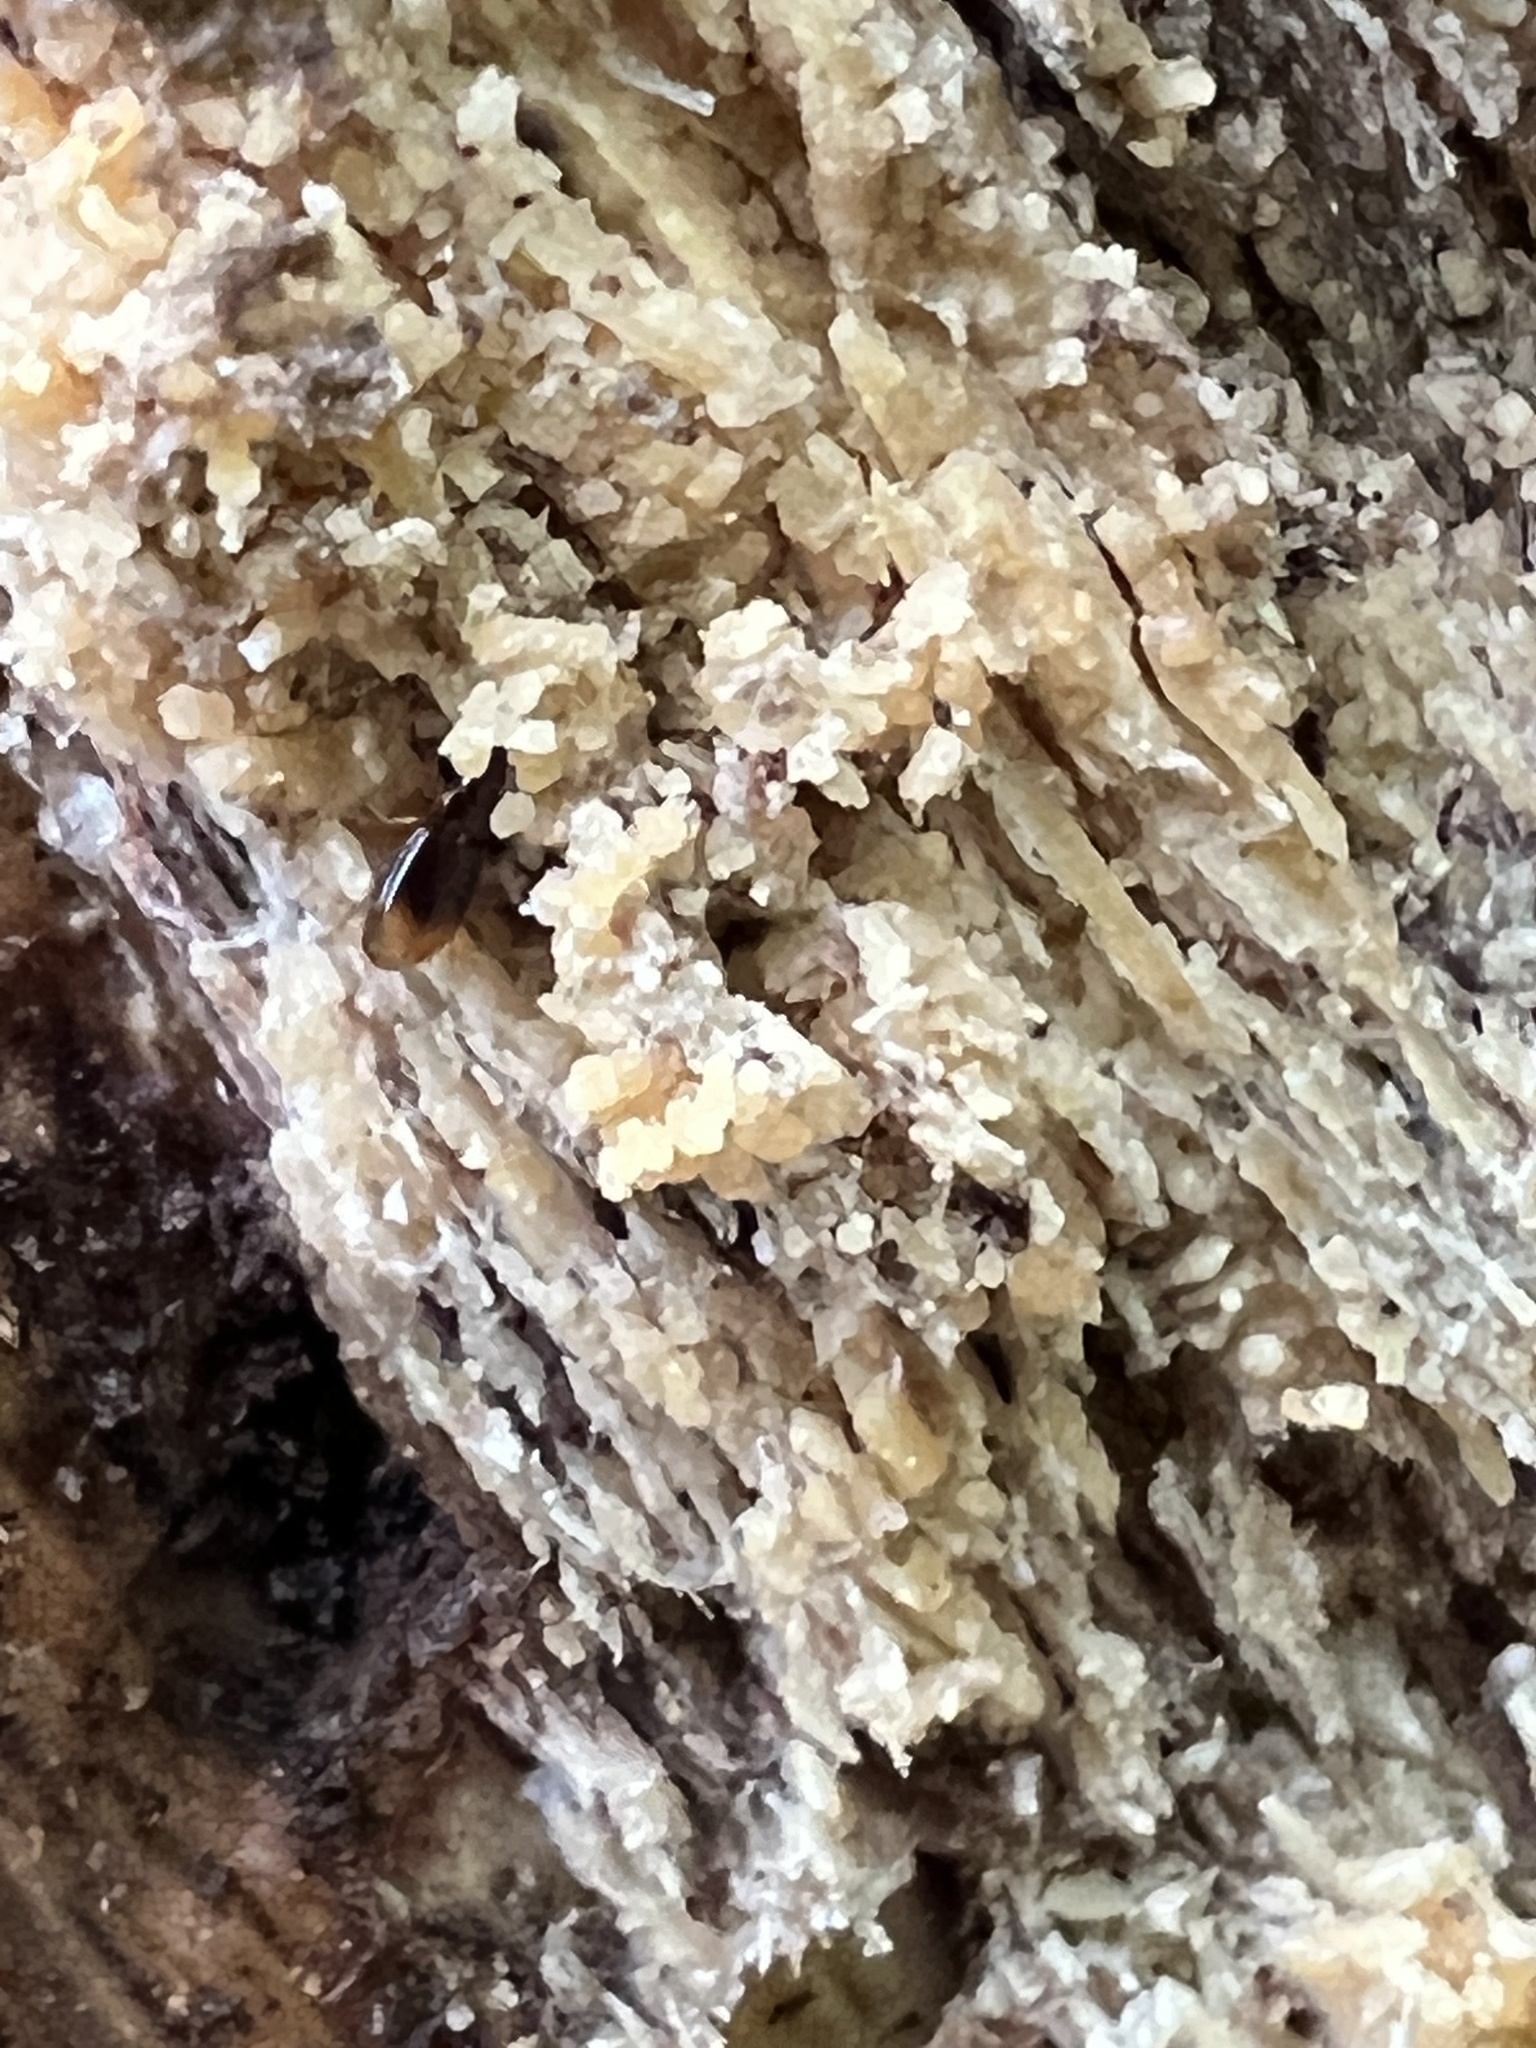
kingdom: Animalia
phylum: Arthropoda
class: Insecta
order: Coleoptera
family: Carabidae
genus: Mioptachys
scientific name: Mioptachys flavicauda
